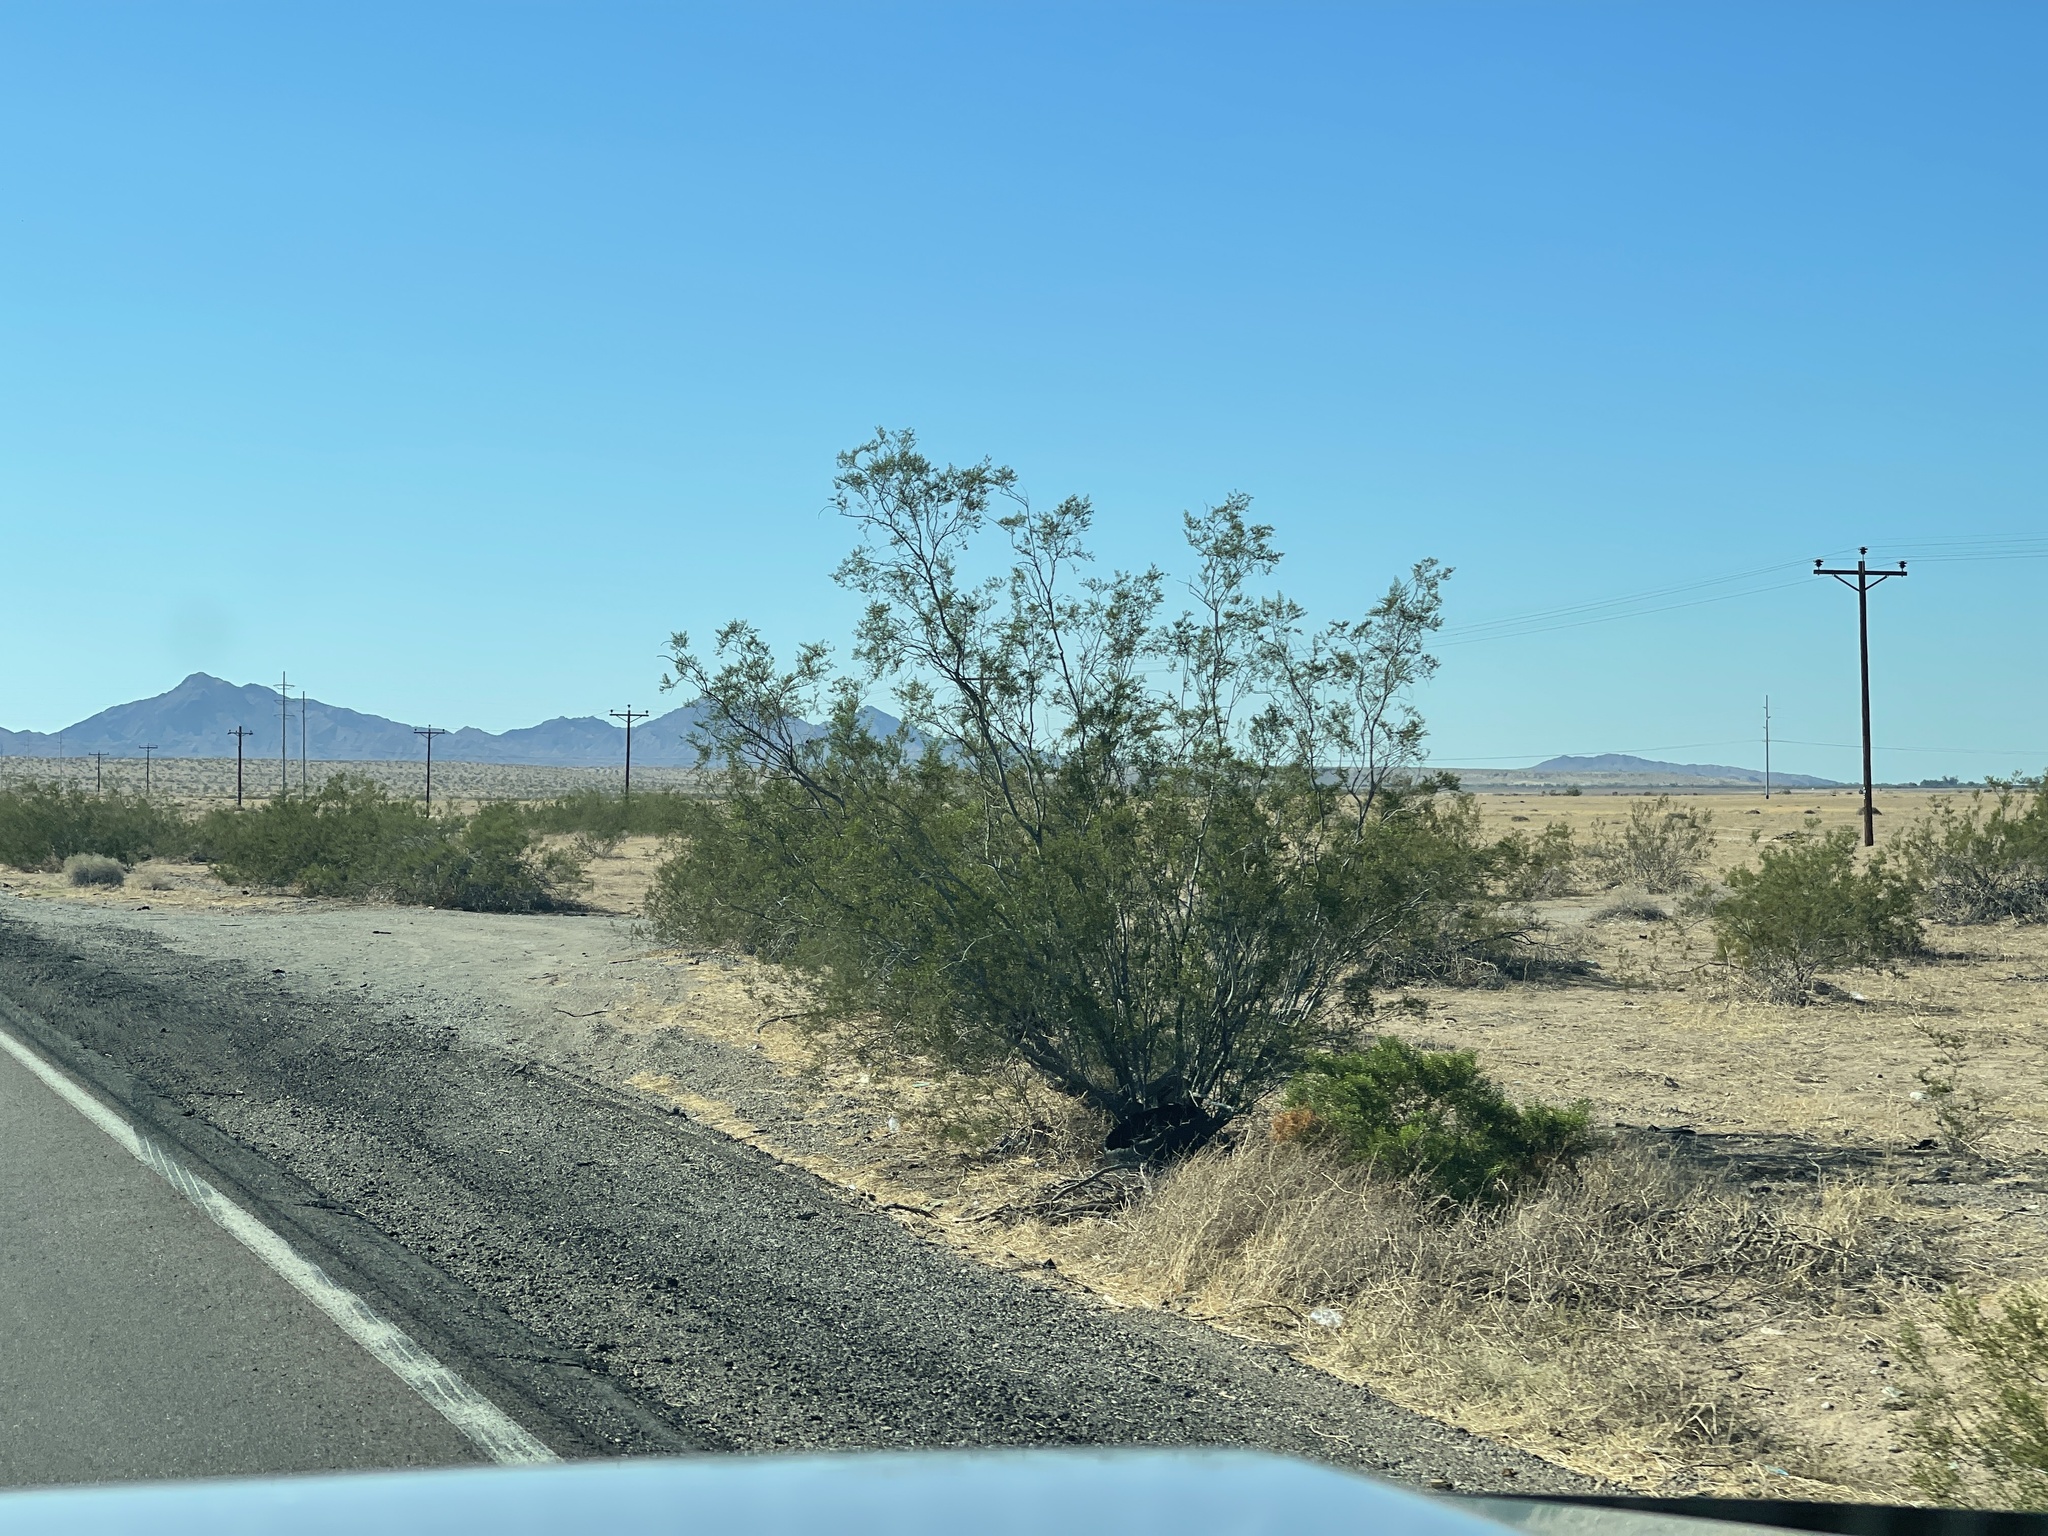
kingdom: Plantae
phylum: Tracheophyta
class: Magnoliopsida
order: Zygophyllales
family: Zygophyllaceae
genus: Larrea
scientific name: Larrea tridentata
